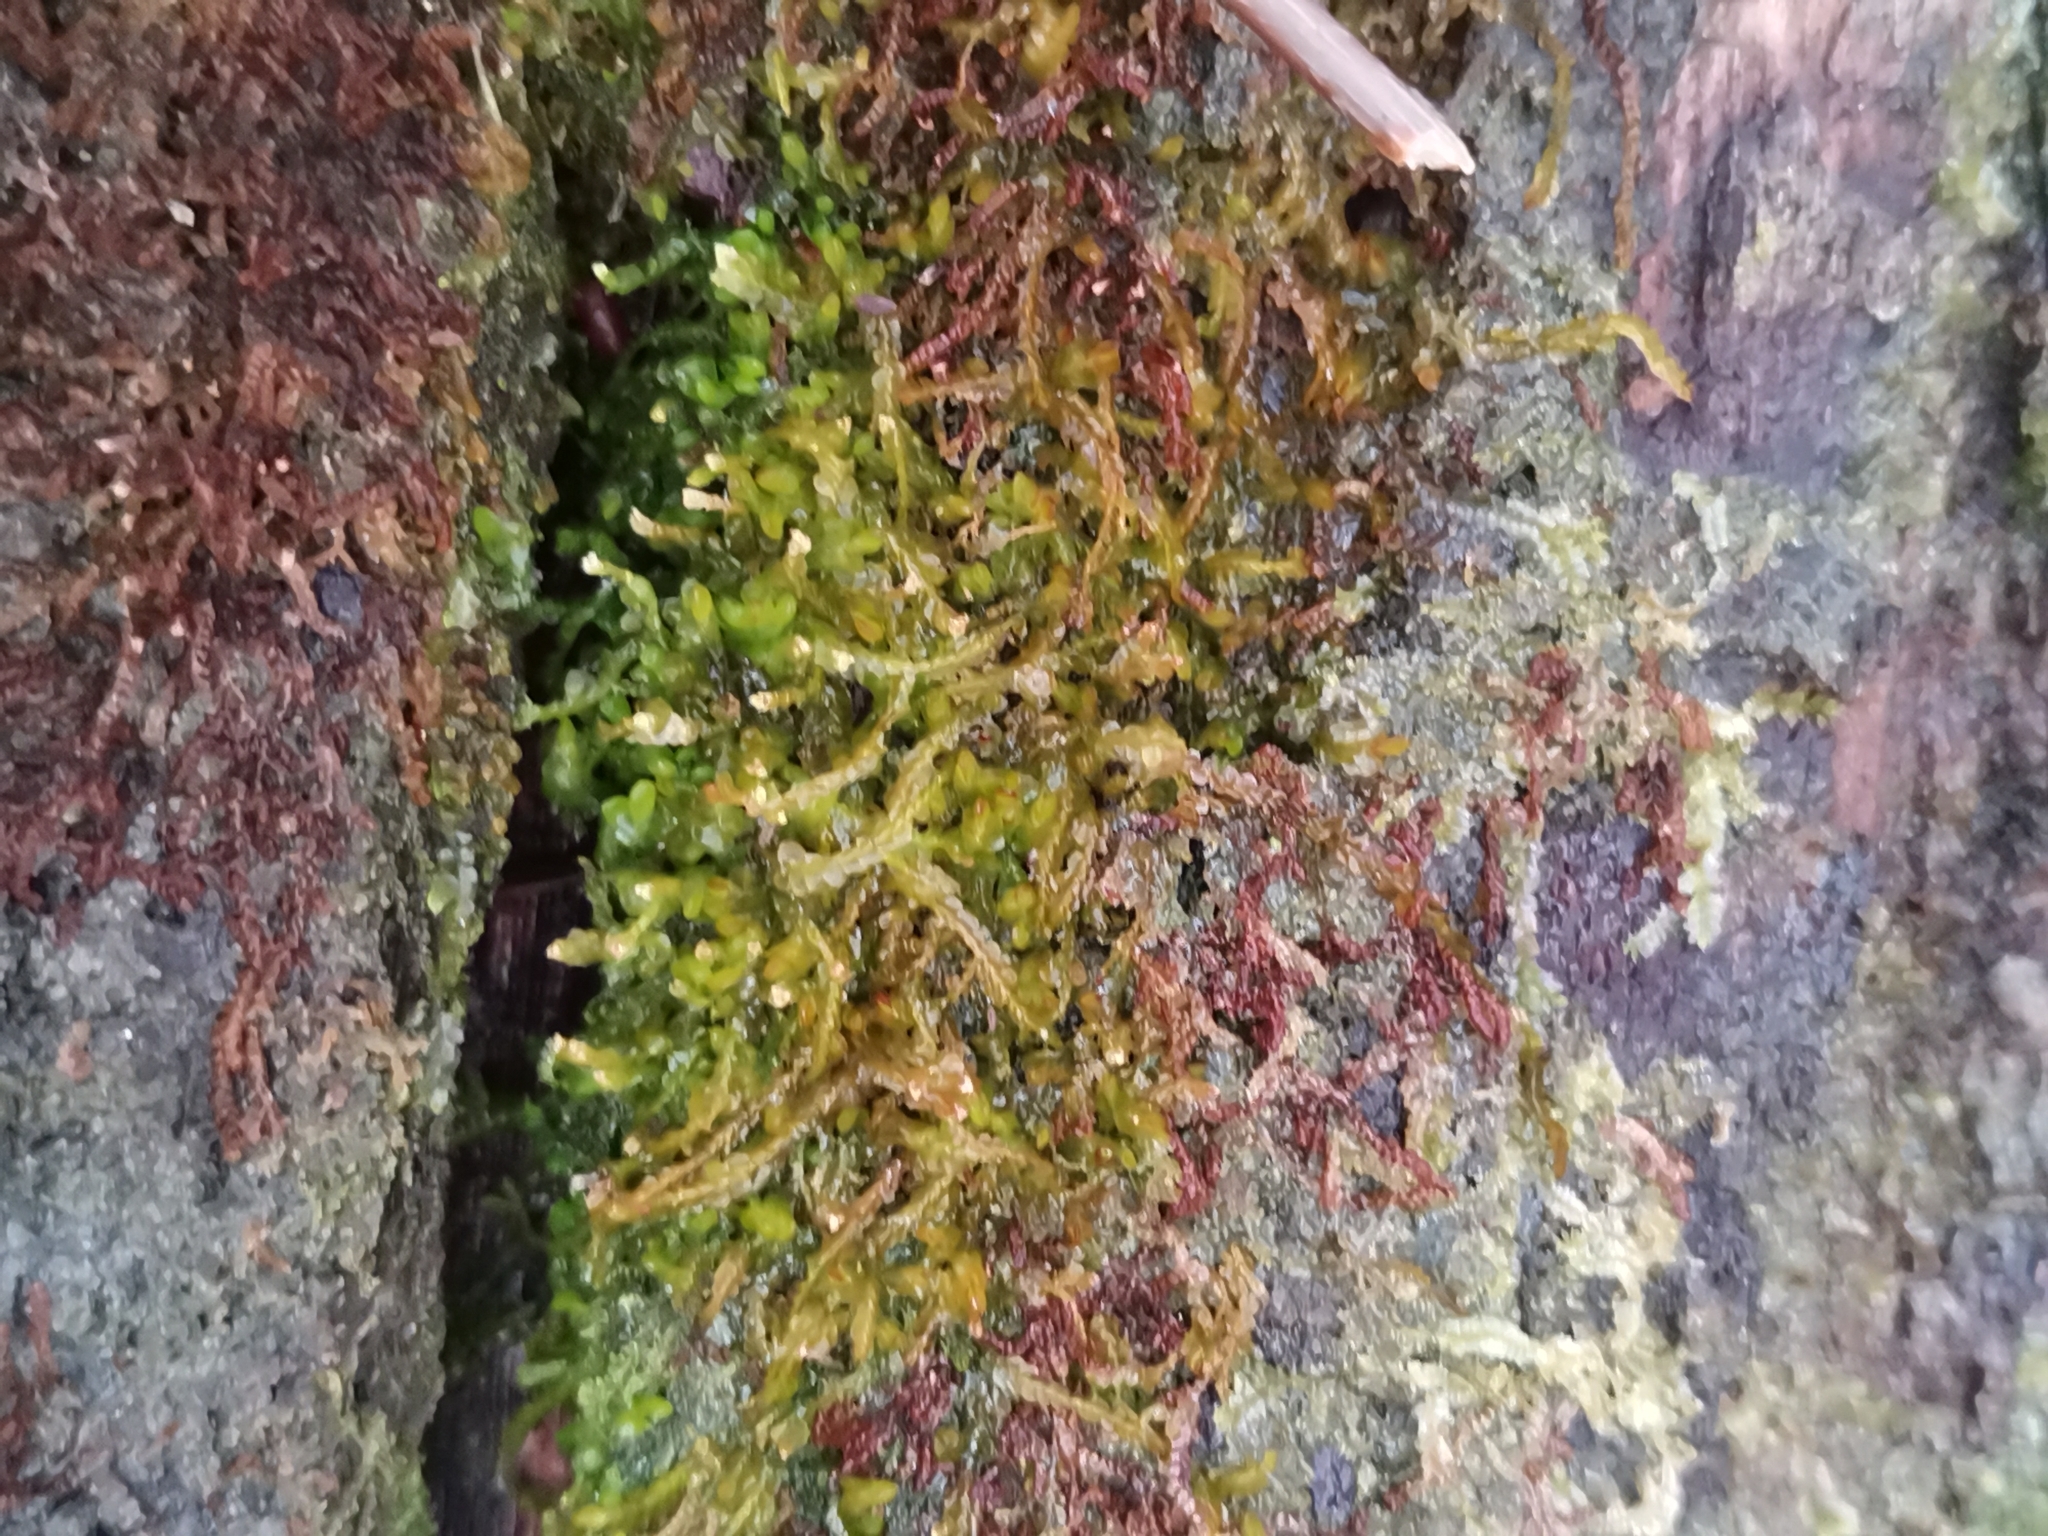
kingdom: Plantae
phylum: Marchantiophyta
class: Jungermanniopsida
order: Jungermanniales
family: Cephaloziaceae
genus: Odontoschisma
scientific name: Odontoschisma denudatum
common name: Matchstick flapwort
